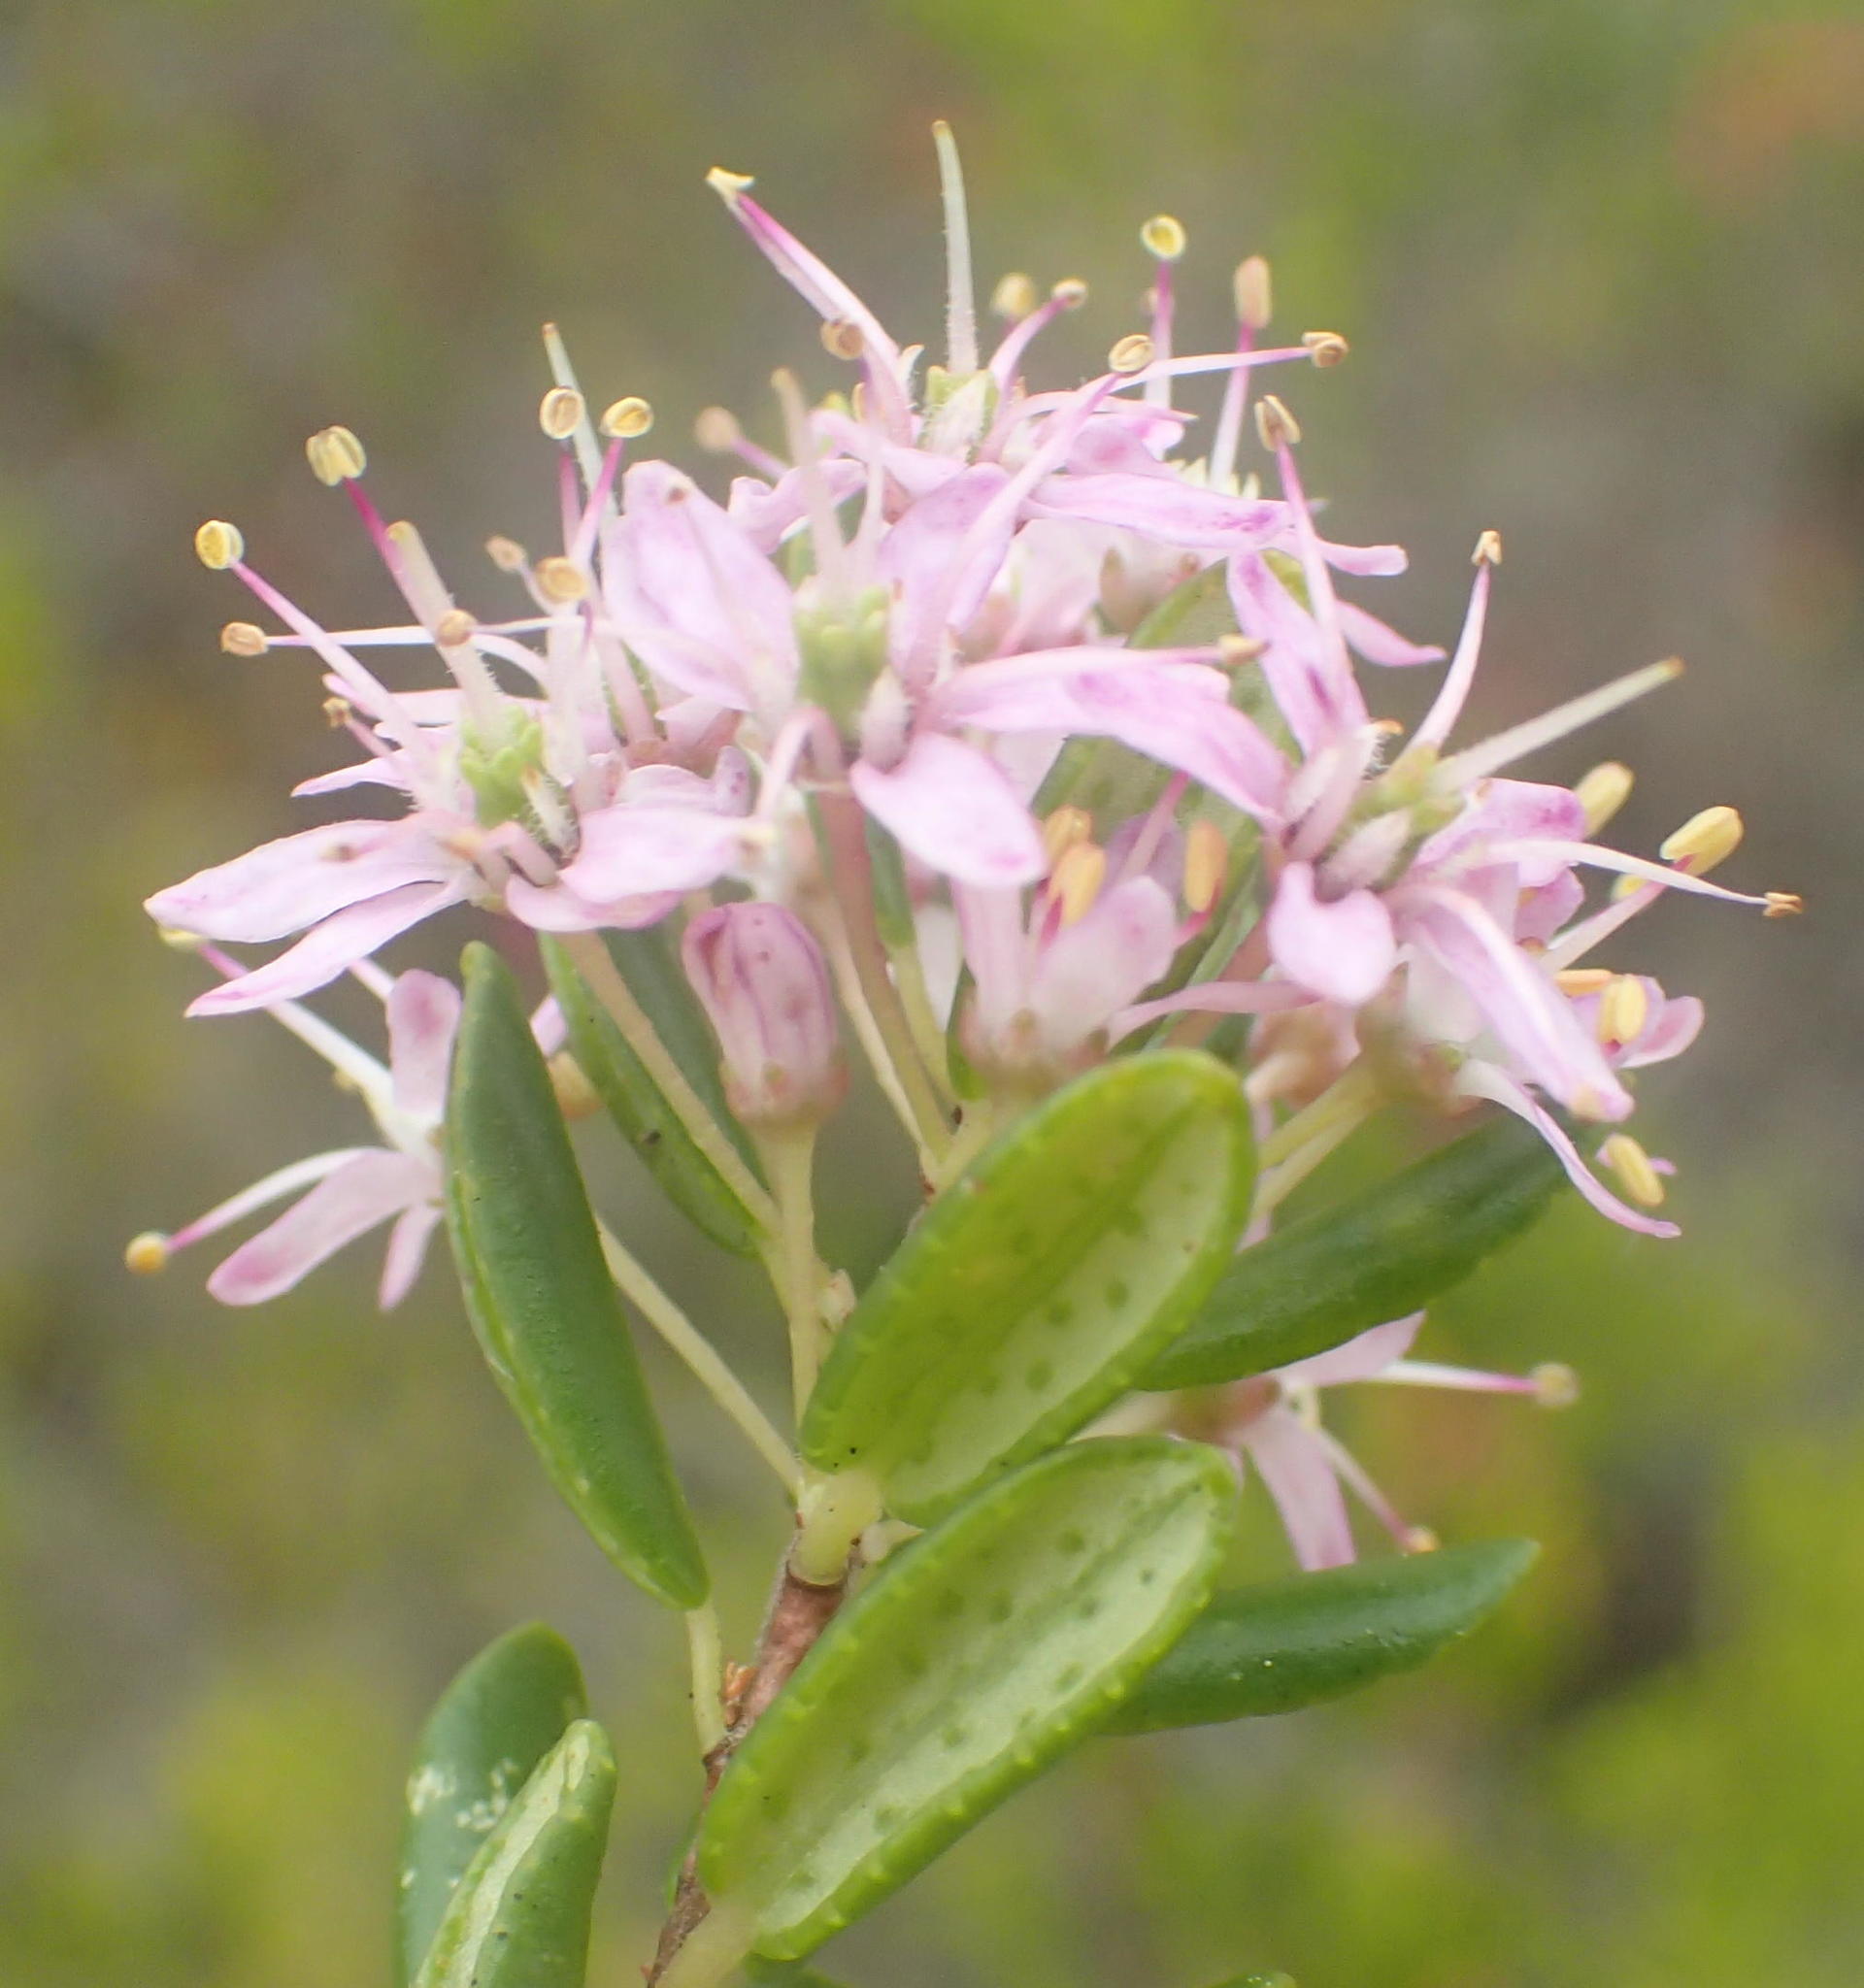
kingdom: Plantae
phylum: Tracheophyta
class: Magnoliopsida
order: Sapindales
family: Rutaceae
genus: Agathosma
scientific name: Agathosma ovata
